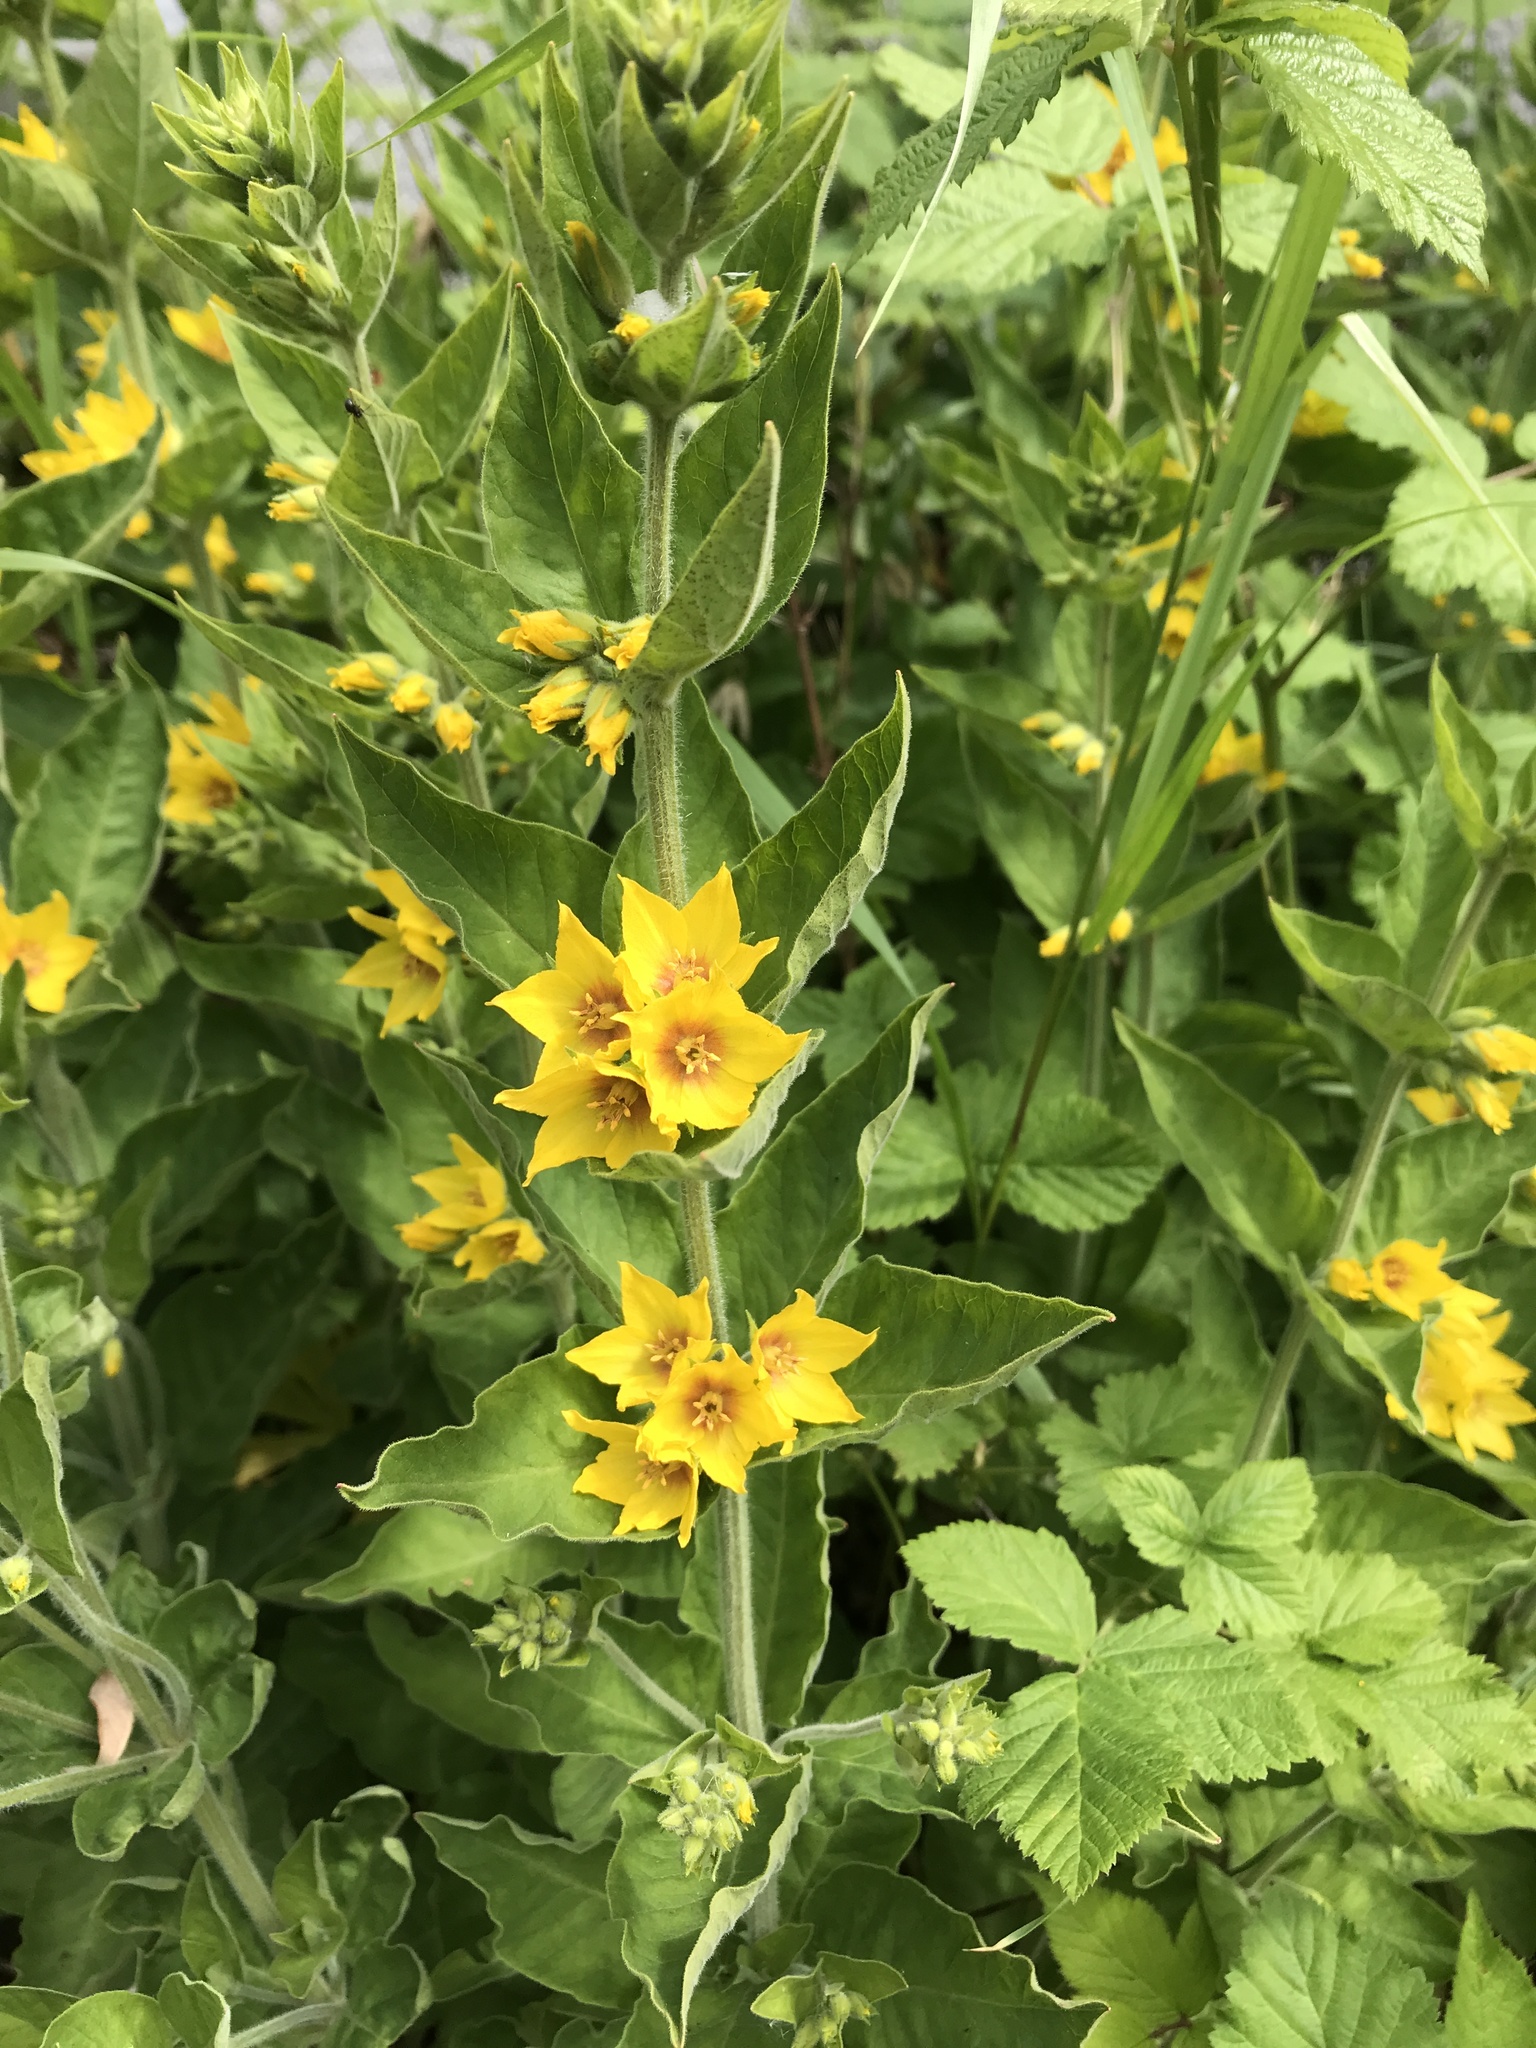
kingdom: Plantae
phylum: Tracheophyta
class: Magnoliopsida
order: Ericales
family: Primulaceae
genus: Lysimachia
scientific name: Lysimachia punctata
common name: Dotted loosestrife
